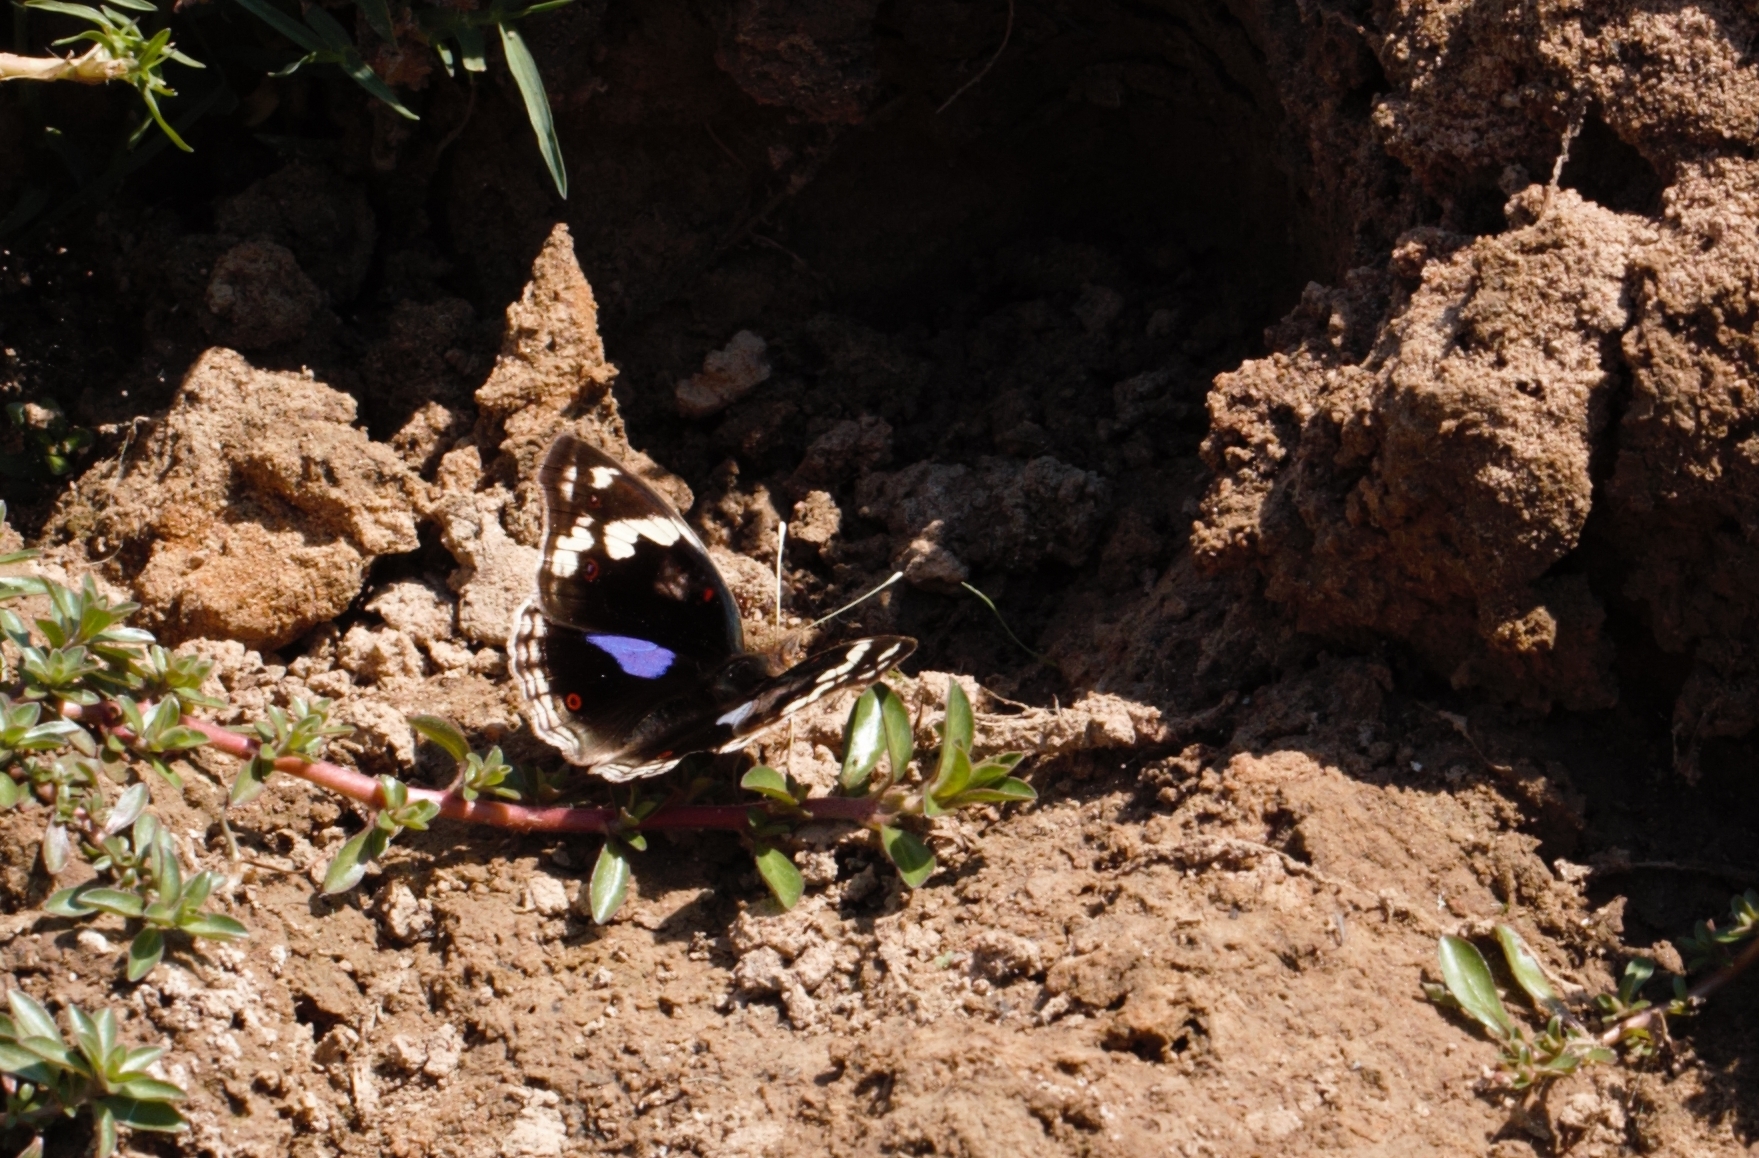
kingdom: Animalia
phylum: Arthropoda
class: Insecta
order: Lepidoptera
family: Nymphalidae
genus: Junonia
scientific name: Junonia oenone
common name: Dark blue pansy
